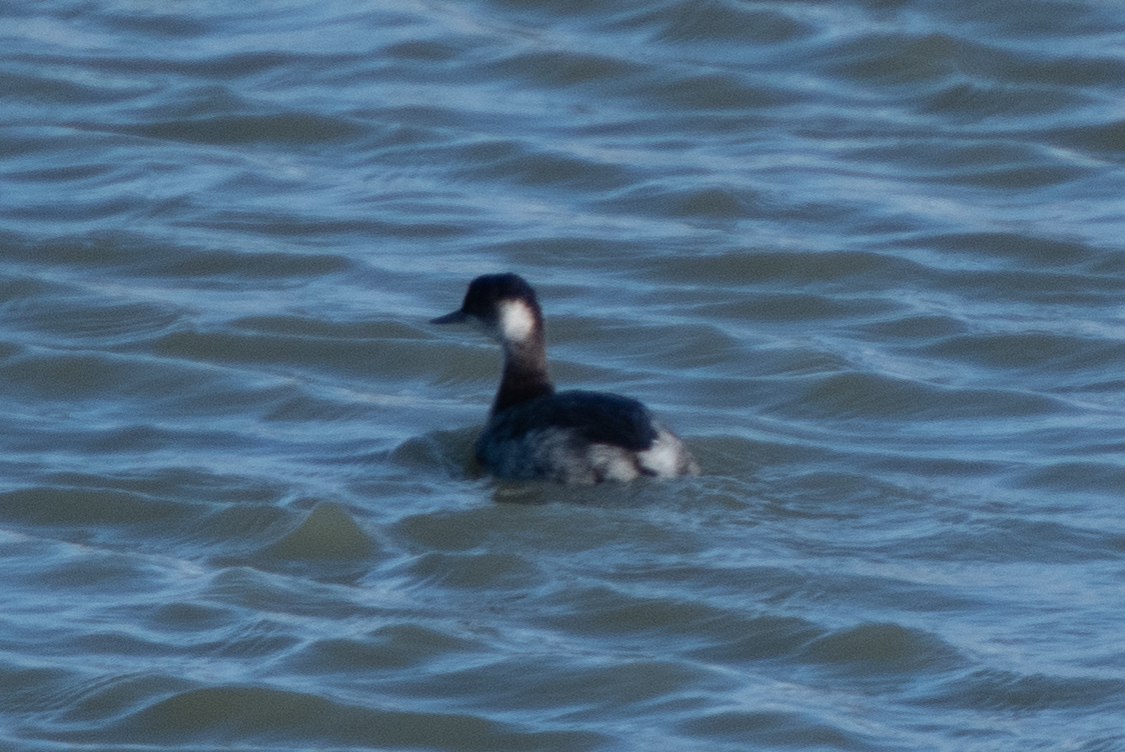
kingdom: Animalia
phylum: Chordata
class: Aves
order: Podicipediformes
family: Podicipedidae
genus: Podiceps
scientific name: Podiceps nigricollis
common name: Black-necked grebe
